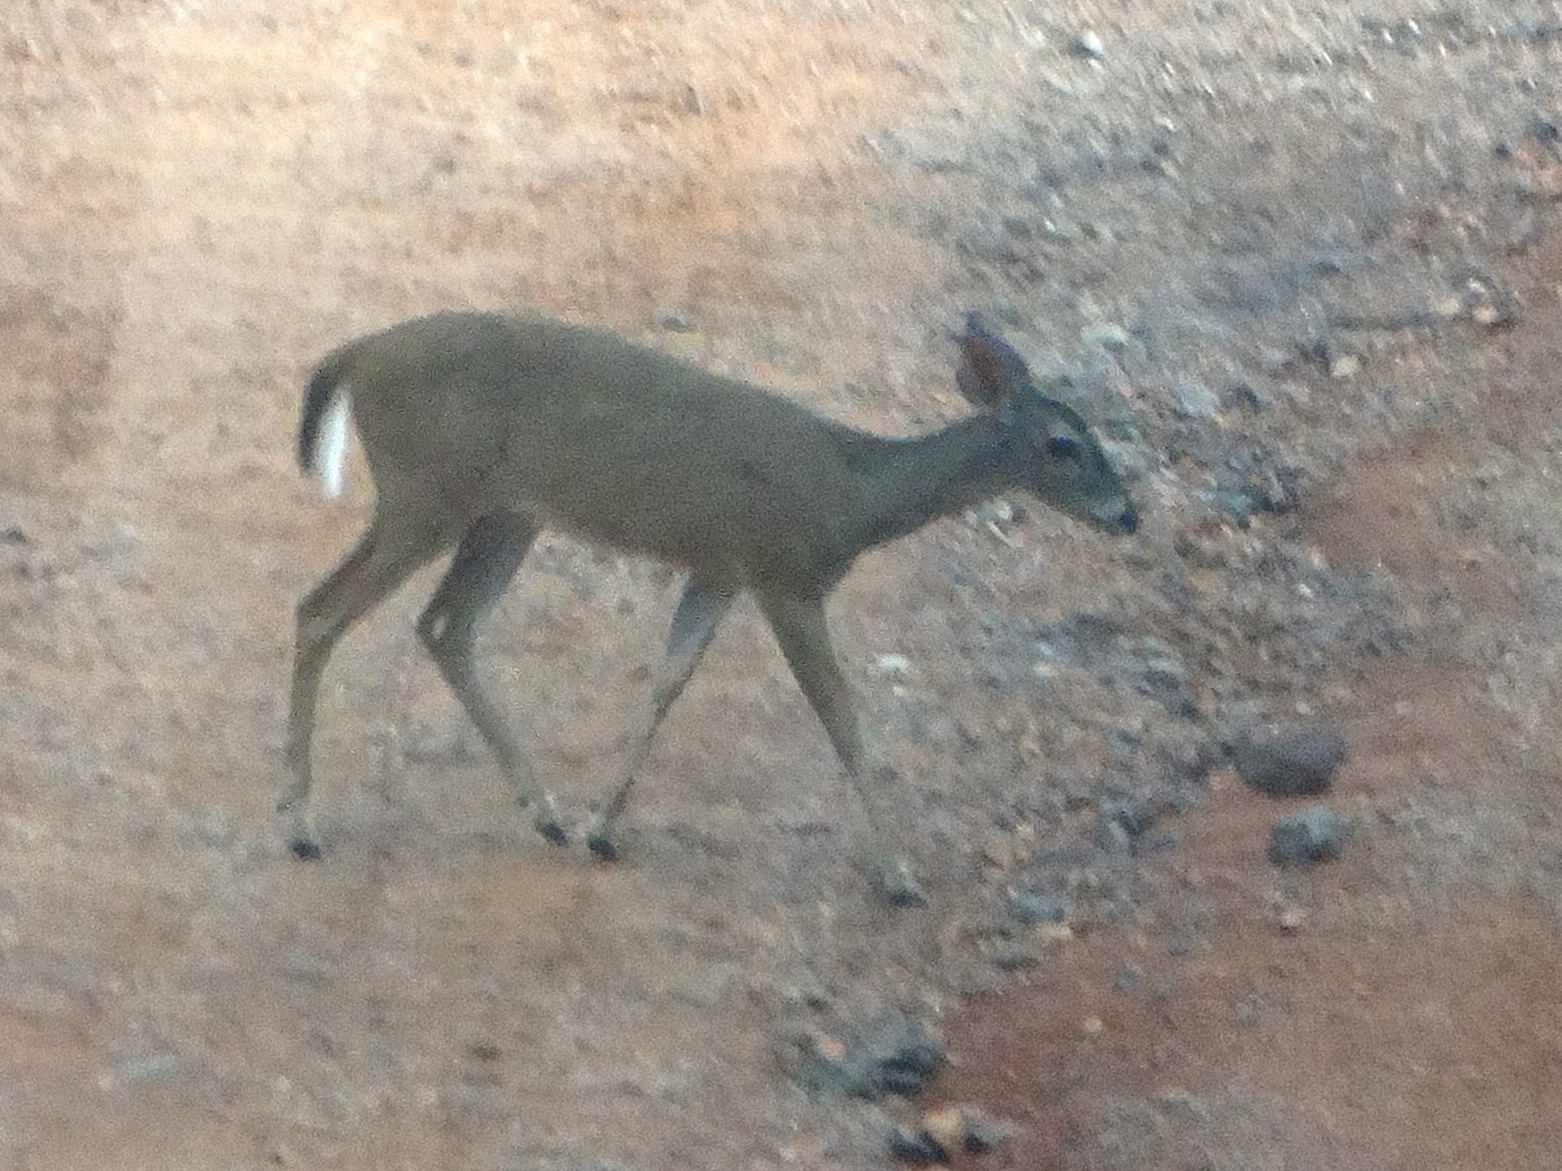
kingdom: Animalia
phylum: Chordata
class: Mammalia
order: Artiodactyla
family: Cervidae
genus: Odocoileus
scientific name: Odocoileus virginianus
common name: White-tailed deer
